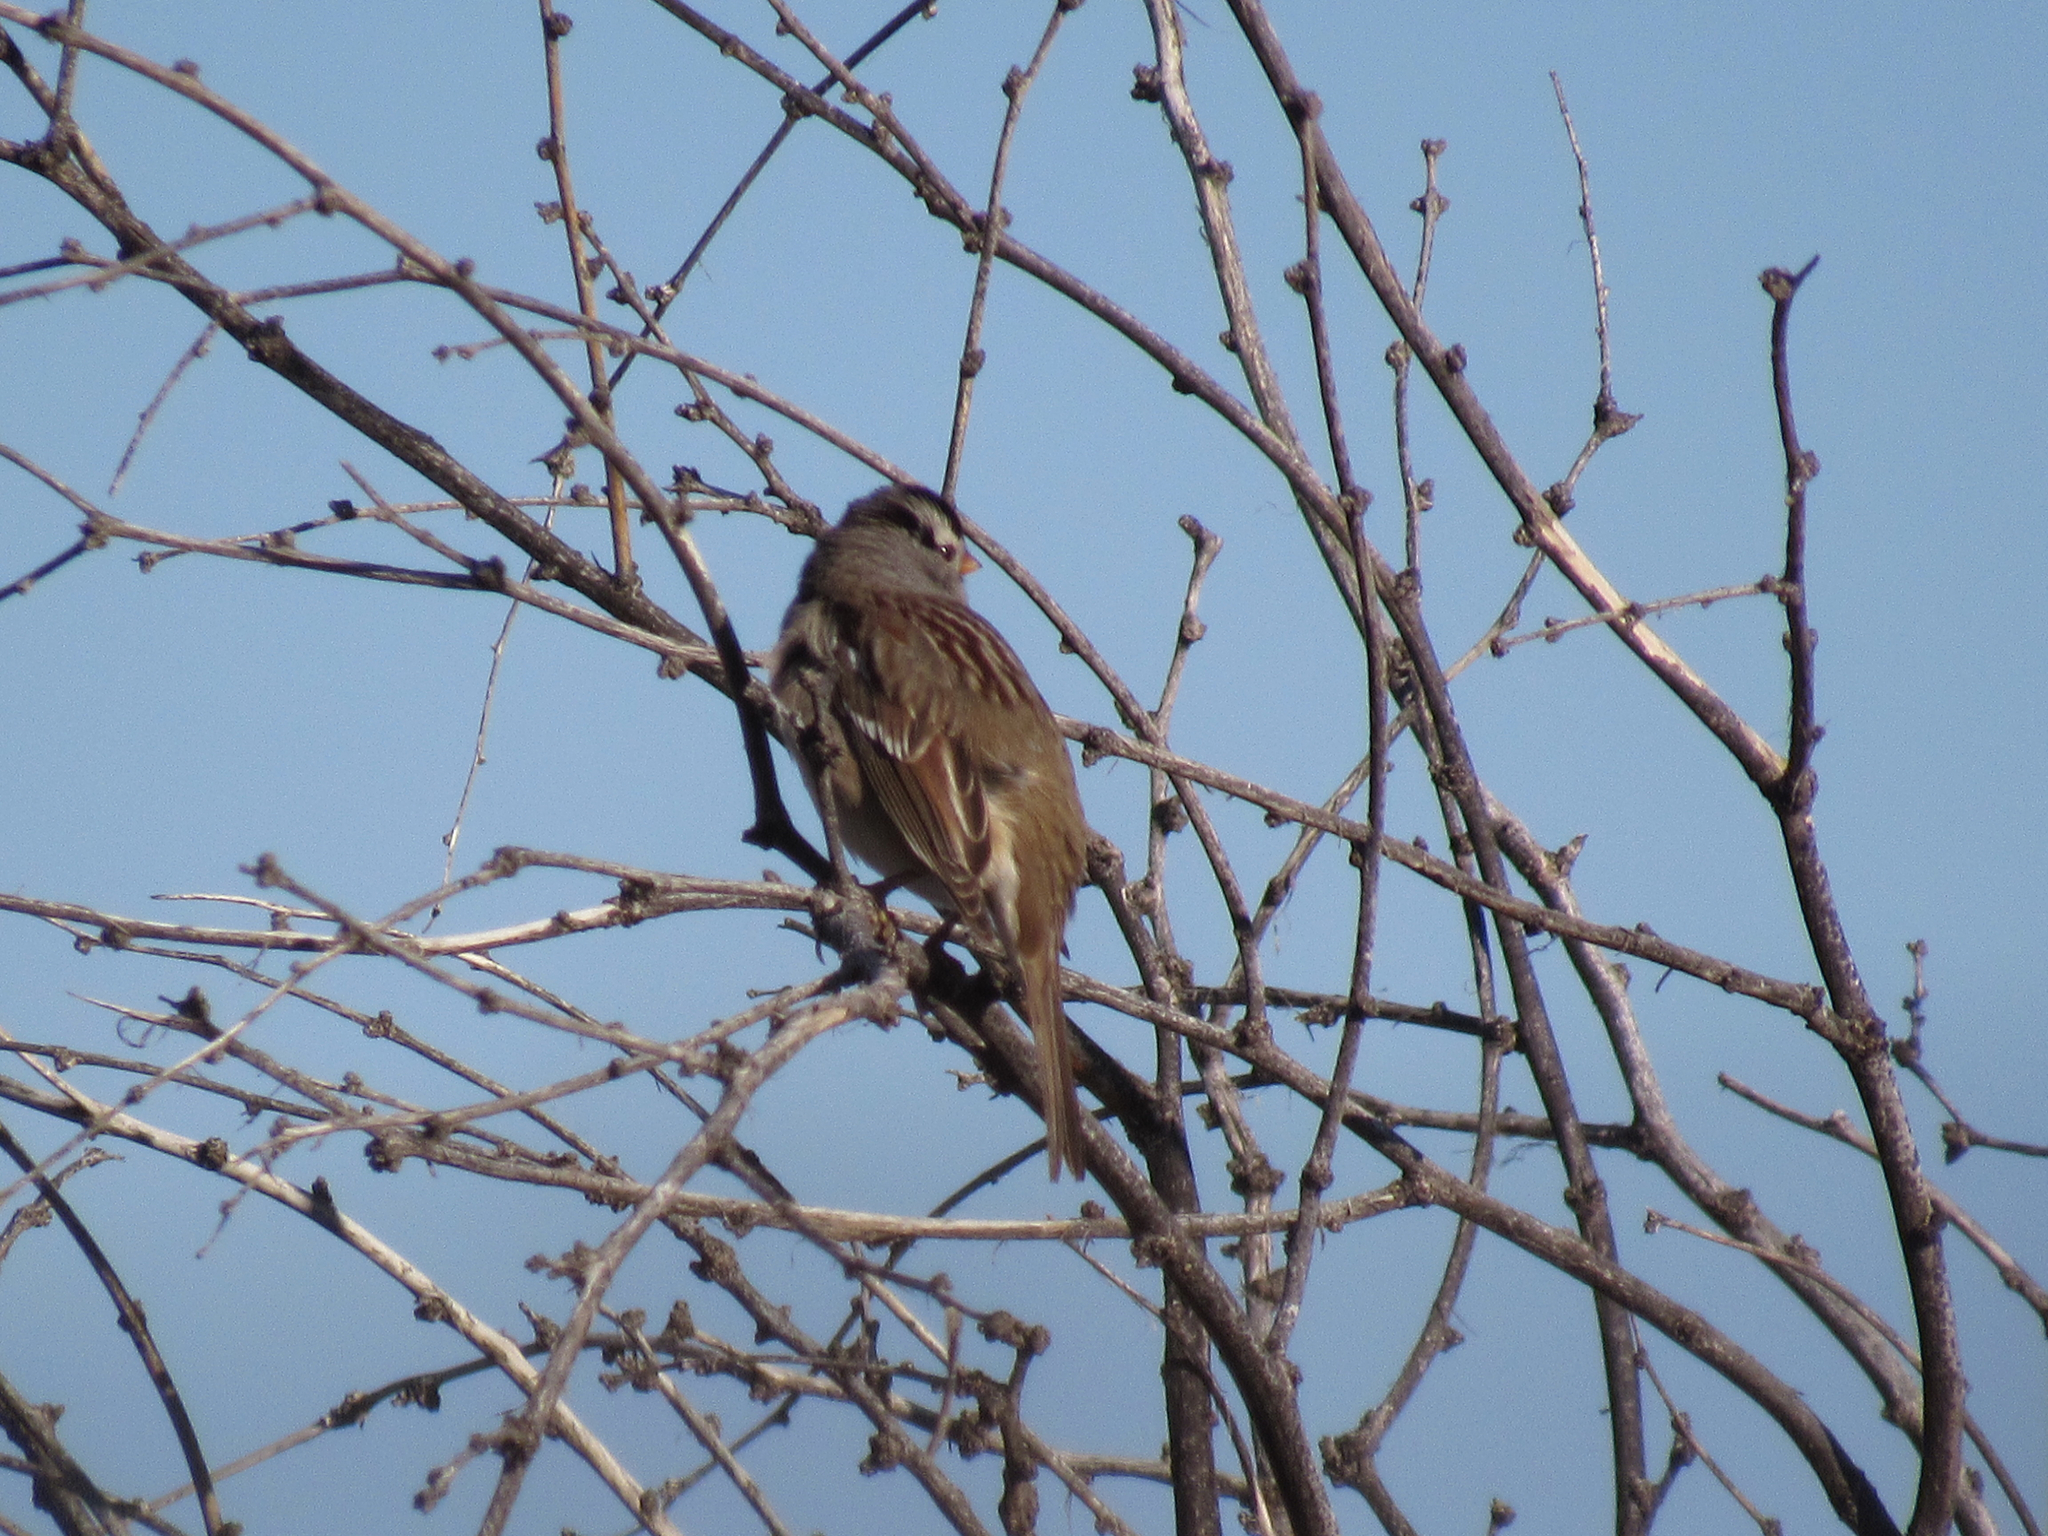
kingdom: Animalia
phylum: Chordata
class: Aves
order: Passeriformes
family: Passerellidae
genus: Zonotrichia
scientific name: Zonotrichia leucophrys
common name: White-crowned sparrow
